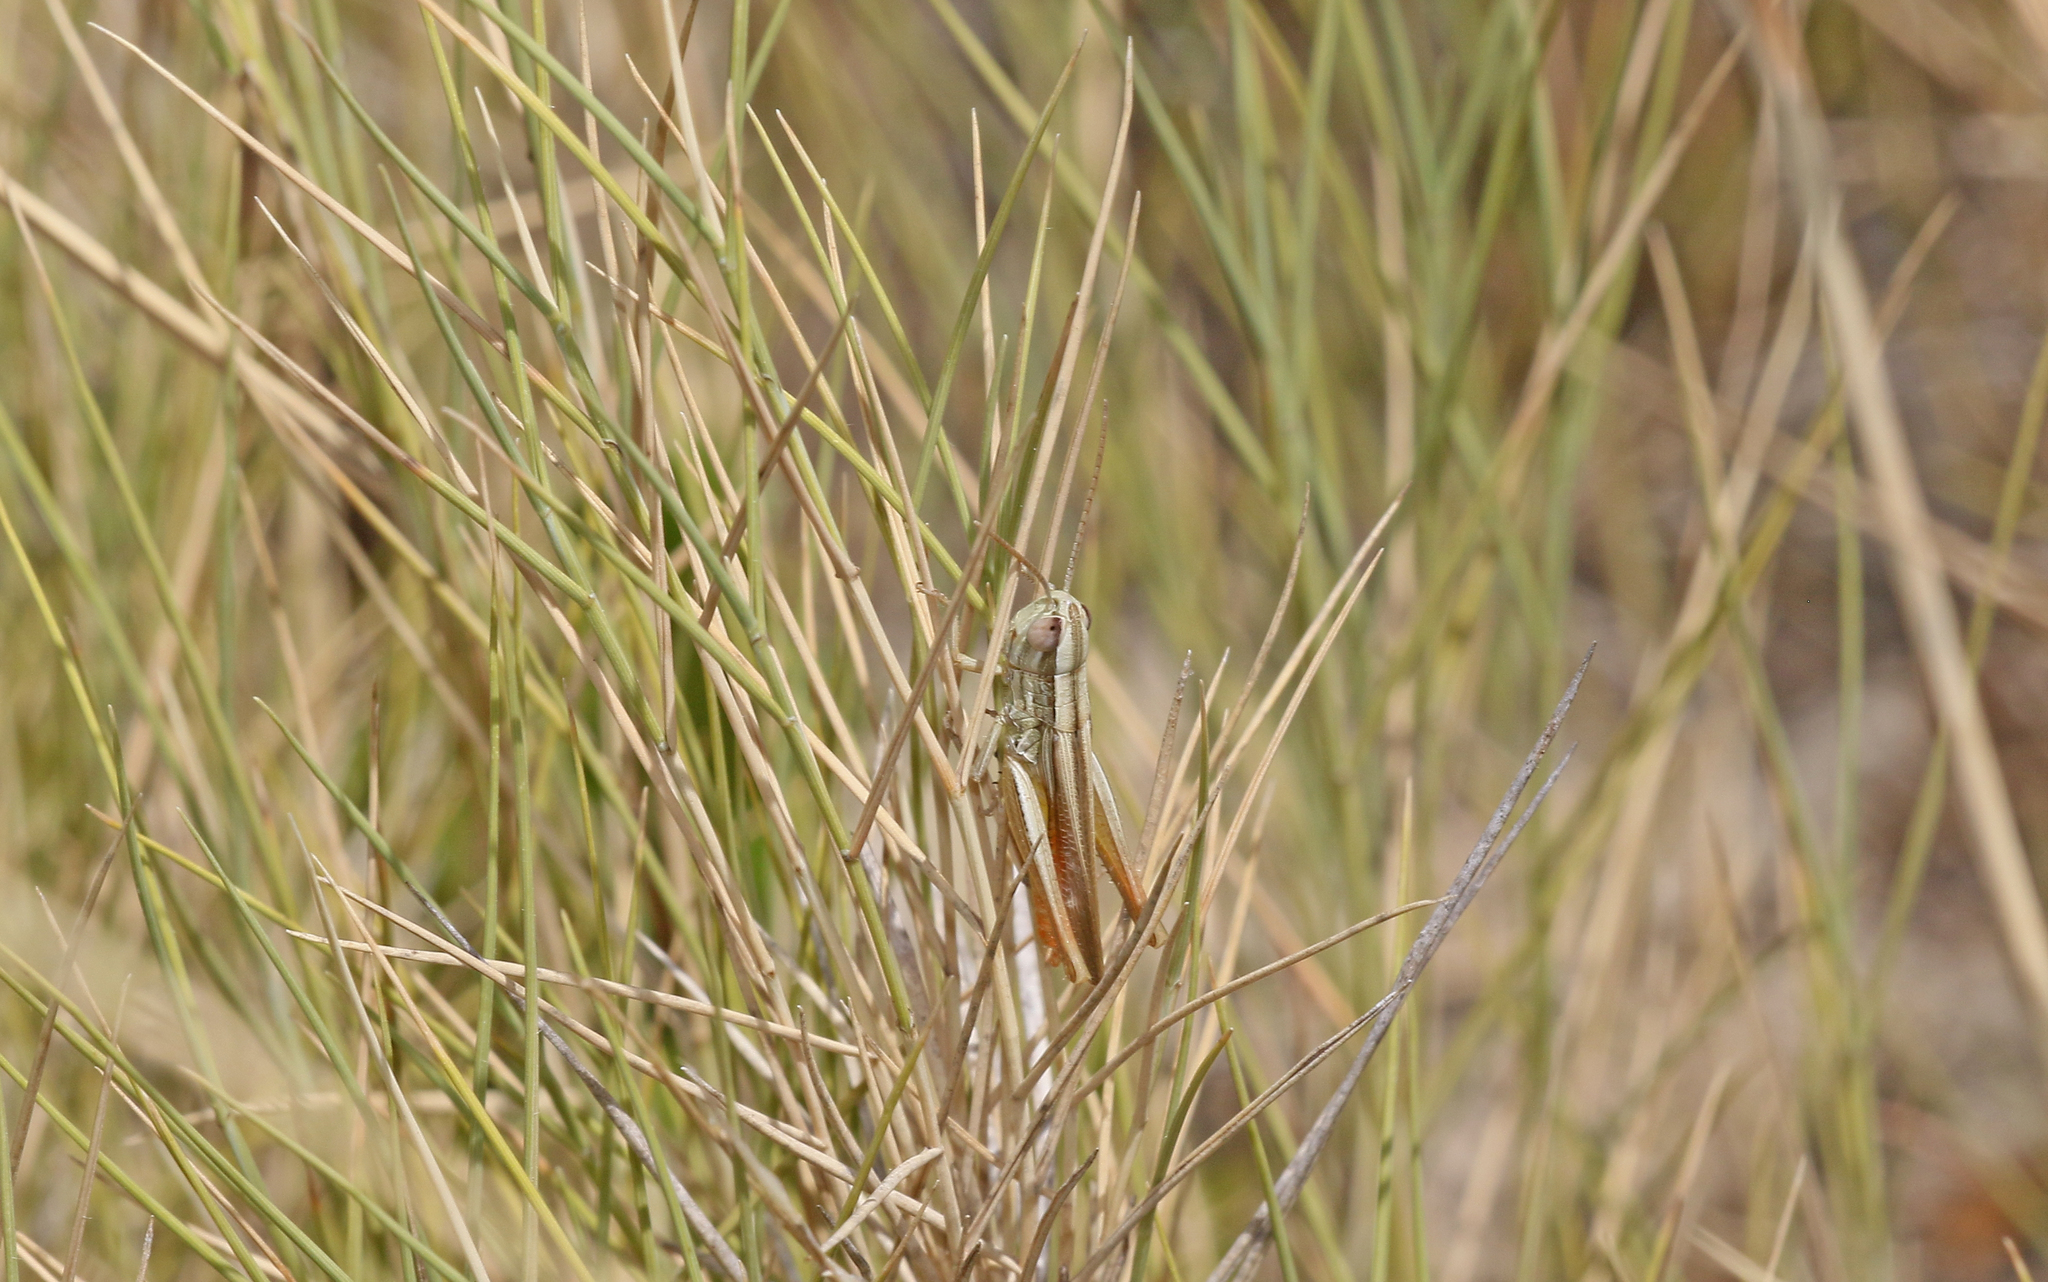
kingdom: Animalia
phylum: Arthropoda
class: Insecta
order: Orthoptera
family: Acrididae
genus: Euchorthippus
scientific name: Euchorthippus chopardi
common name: Iberian straw grasshopper
